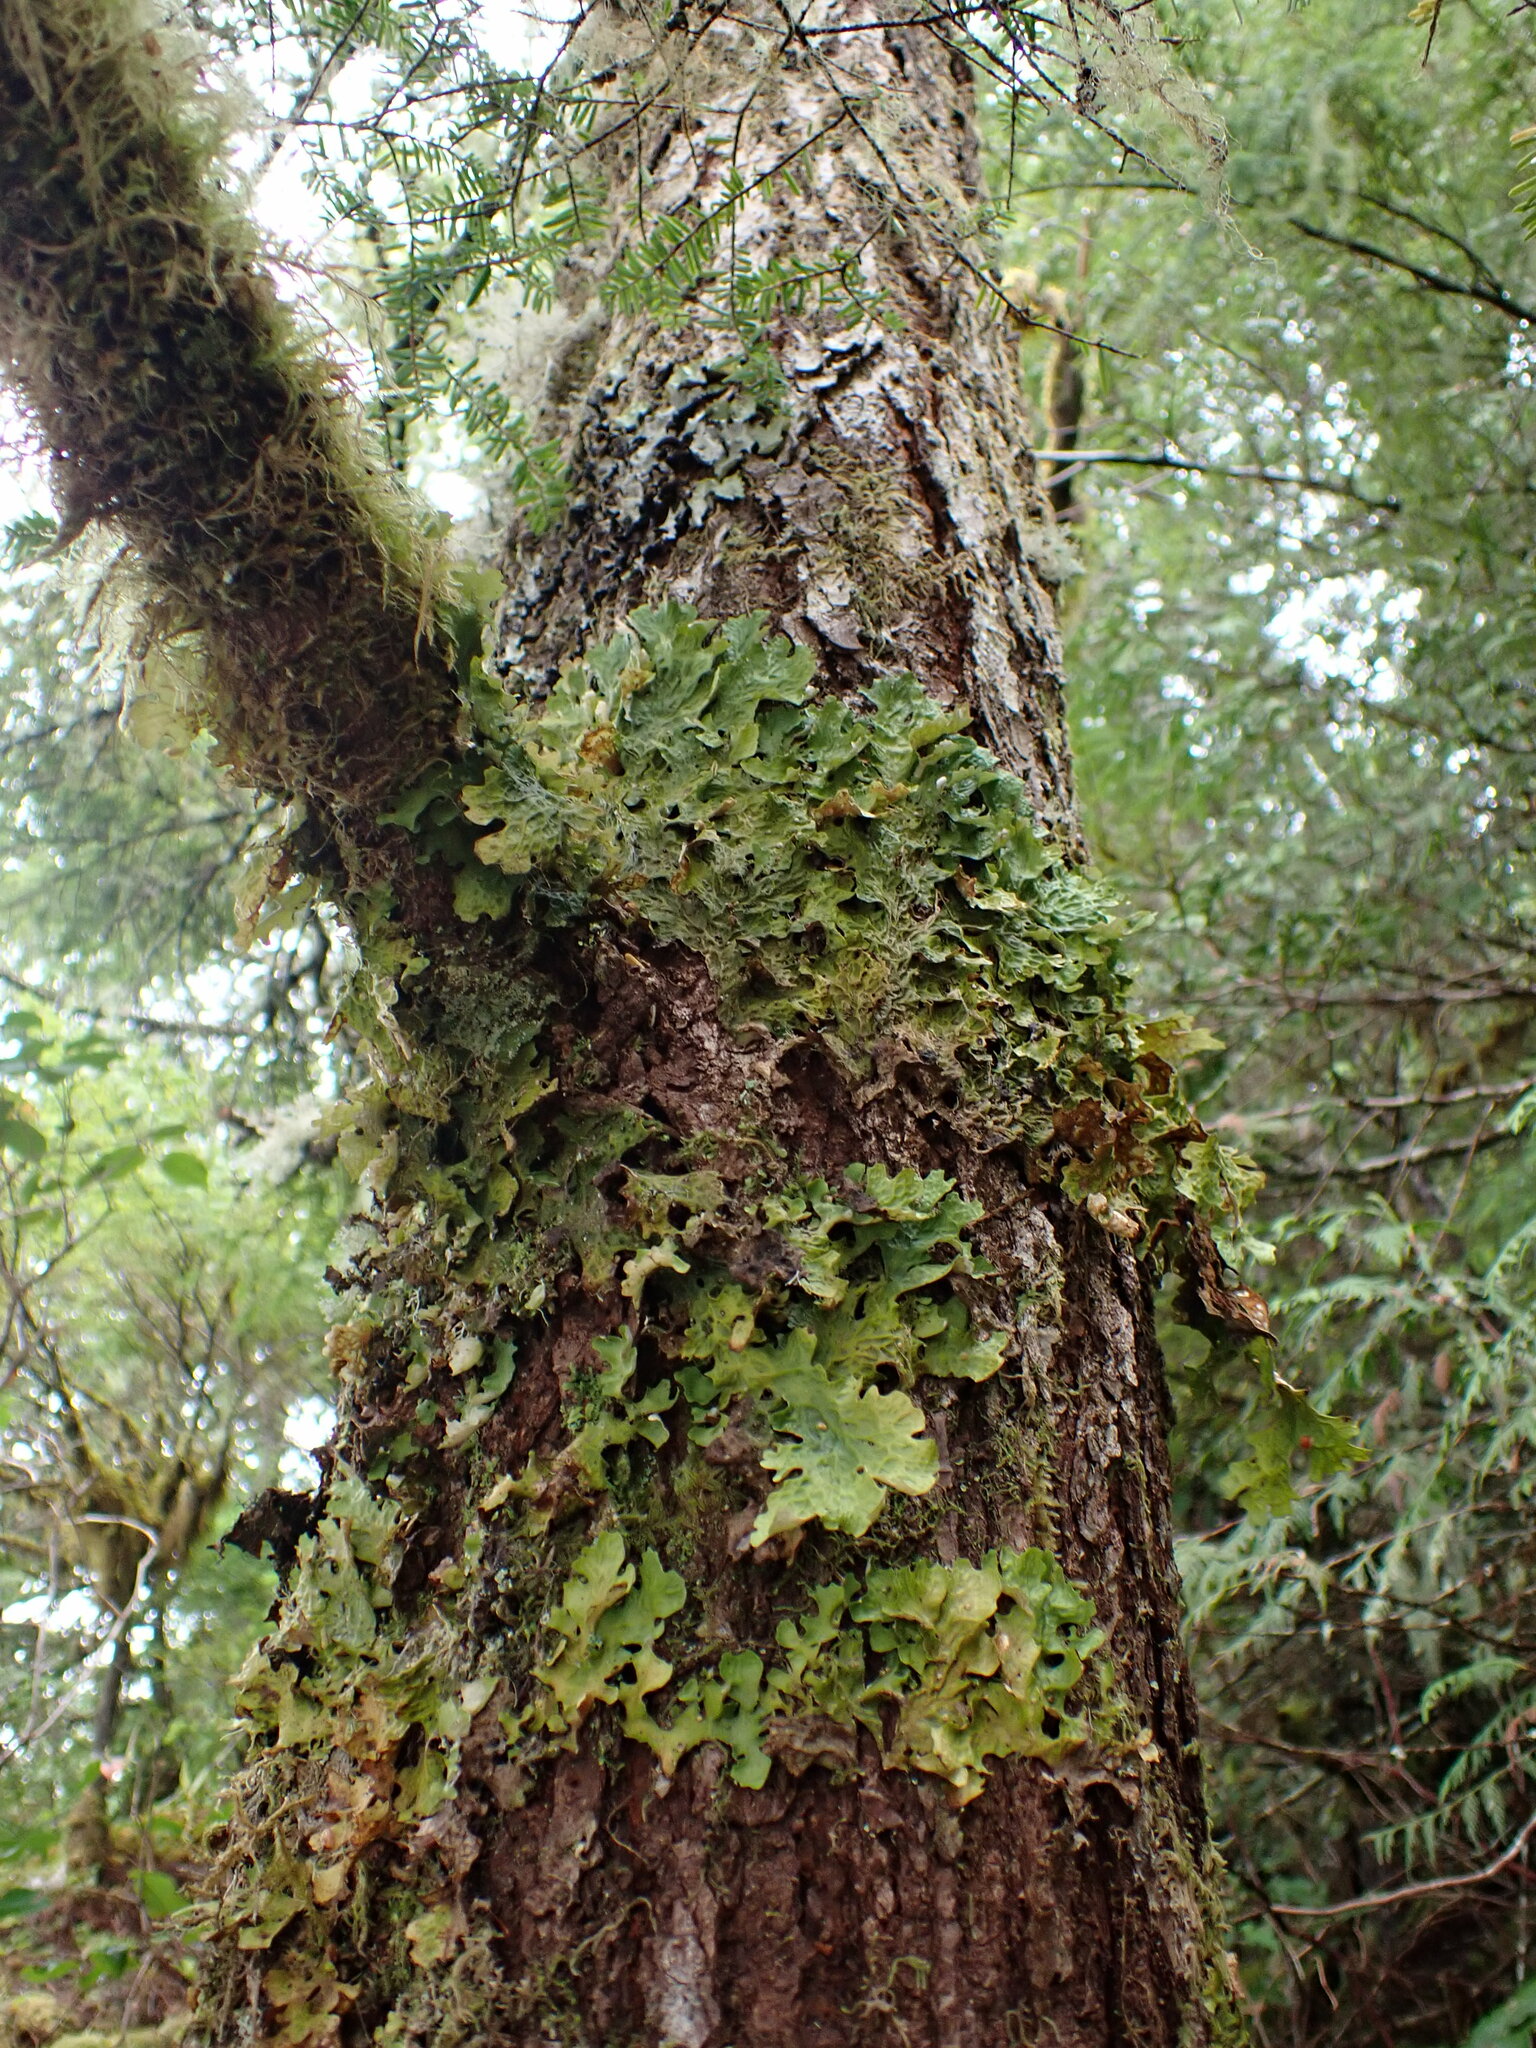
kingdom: Fungi
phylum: Ascomycota
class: Lecanoromycetes
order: Peltigerales
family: Lobariaceae
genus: Lobaria
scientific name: Lobaria linita
